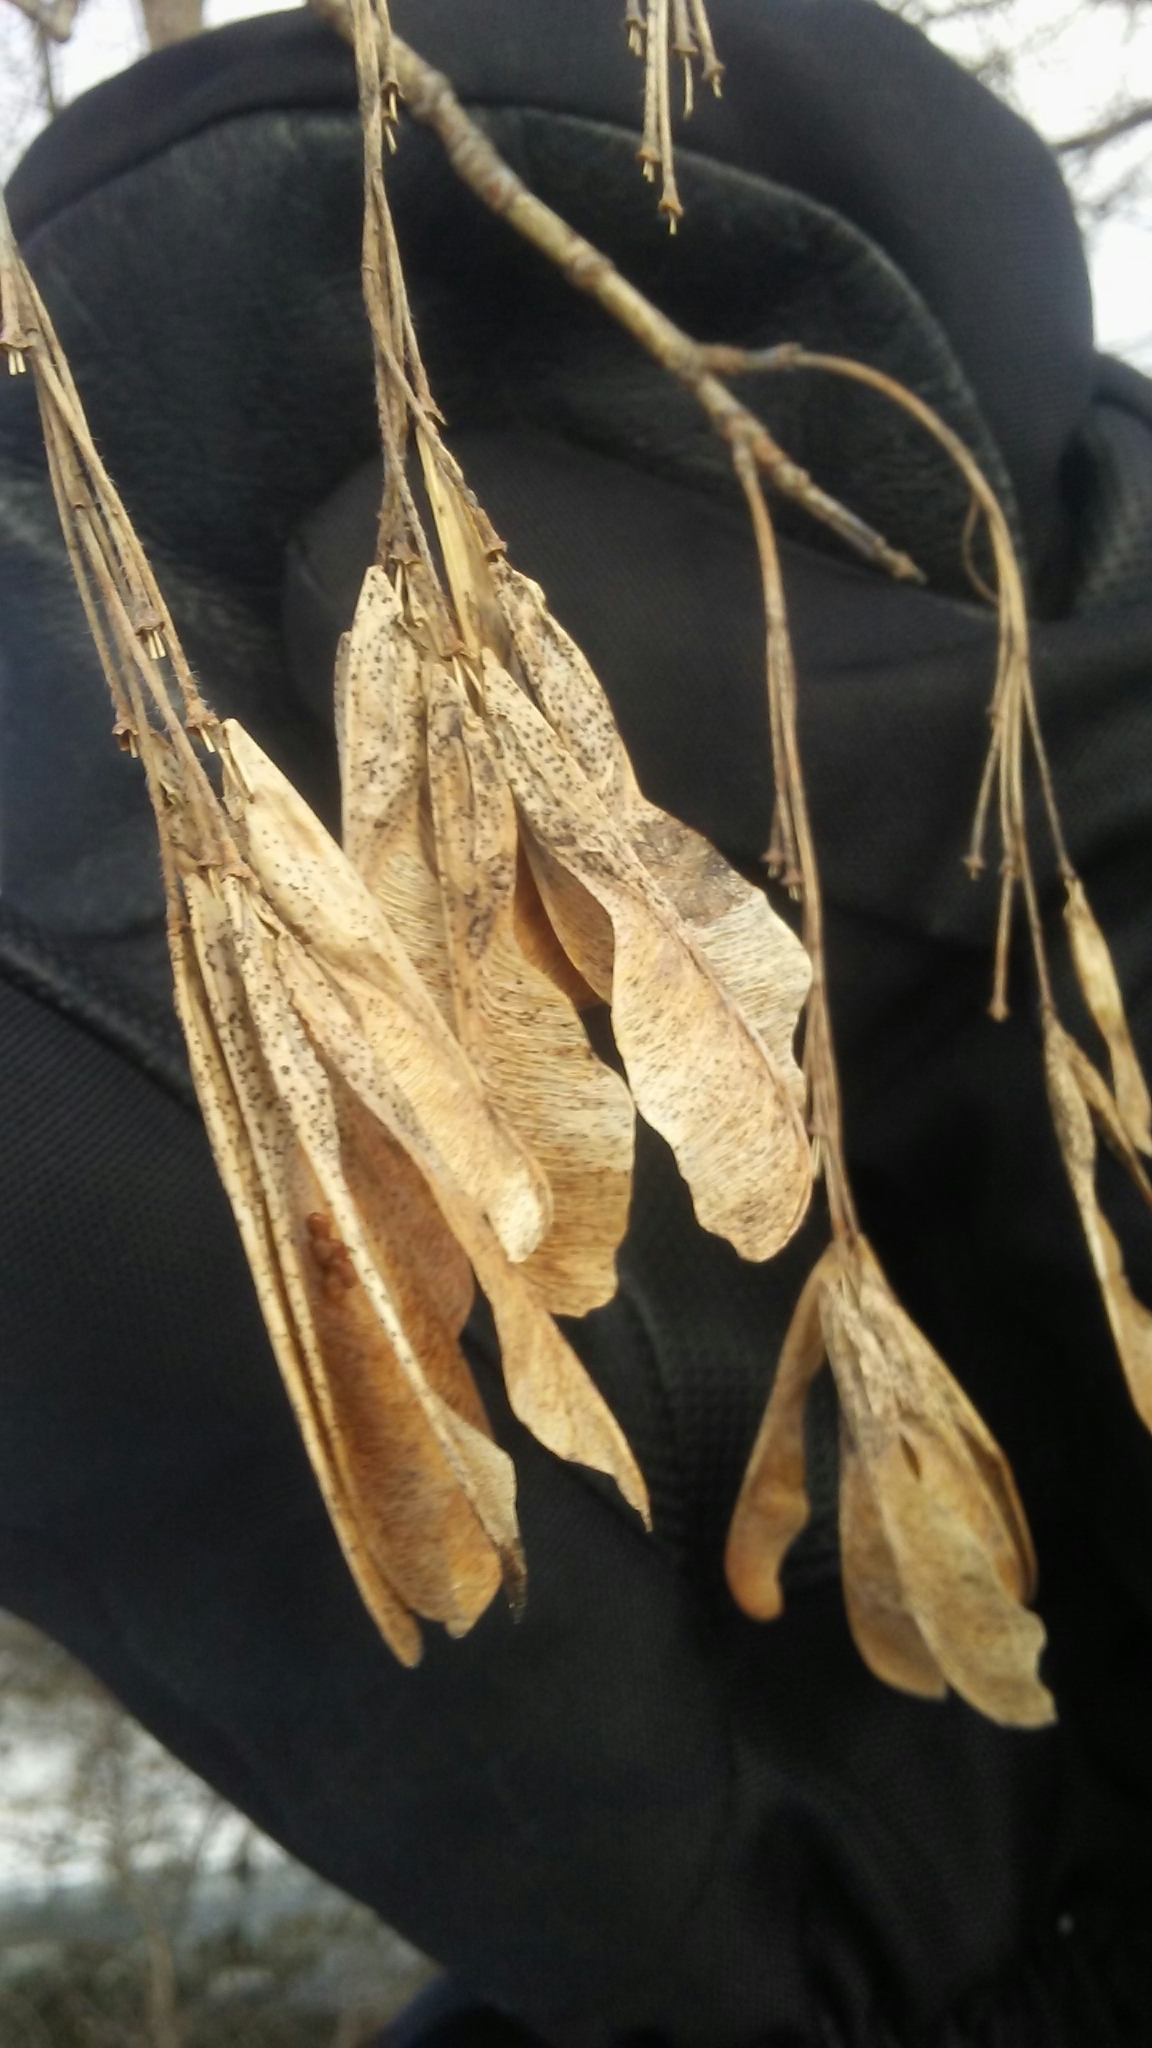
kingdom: Plantae
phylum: Tracheophyta
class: Magnoliopsida
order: Sapindales
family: Sapindaceae
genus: Acer
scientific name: Acer negundo
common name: Ashleaf maple
